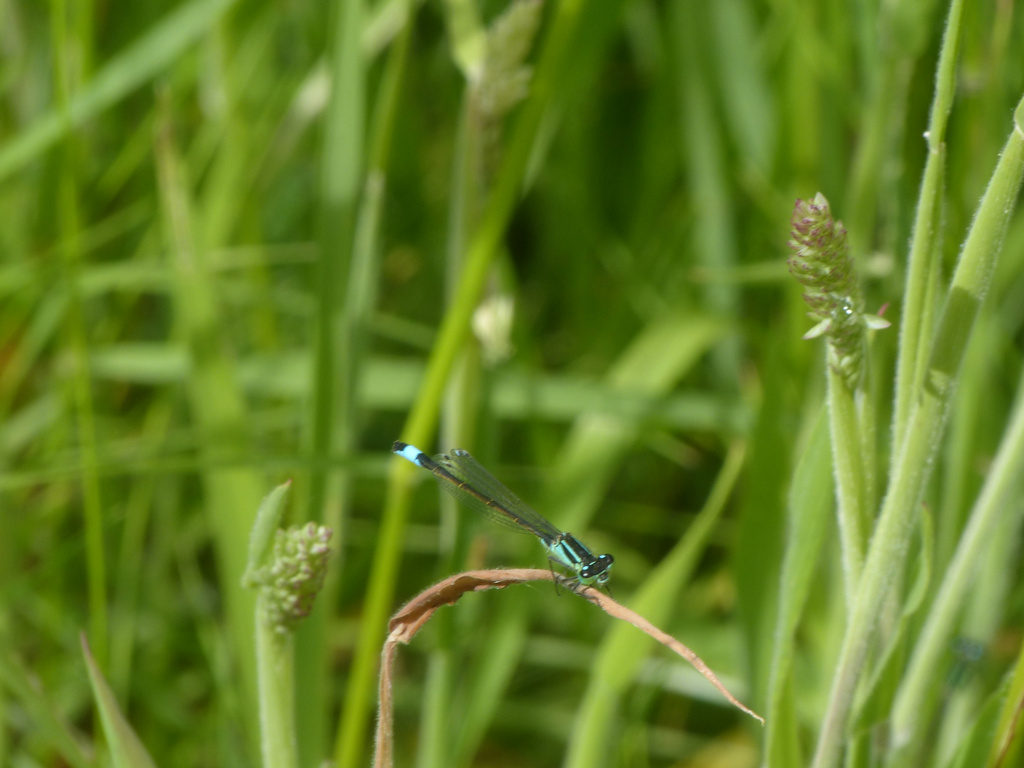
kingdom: Animalia
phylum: Arthropoda
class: Insecta
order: Odonata
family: Coenagrionidae
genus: Ischnura
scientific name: Ischnura elegans
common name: Blue-tailed damselfly
